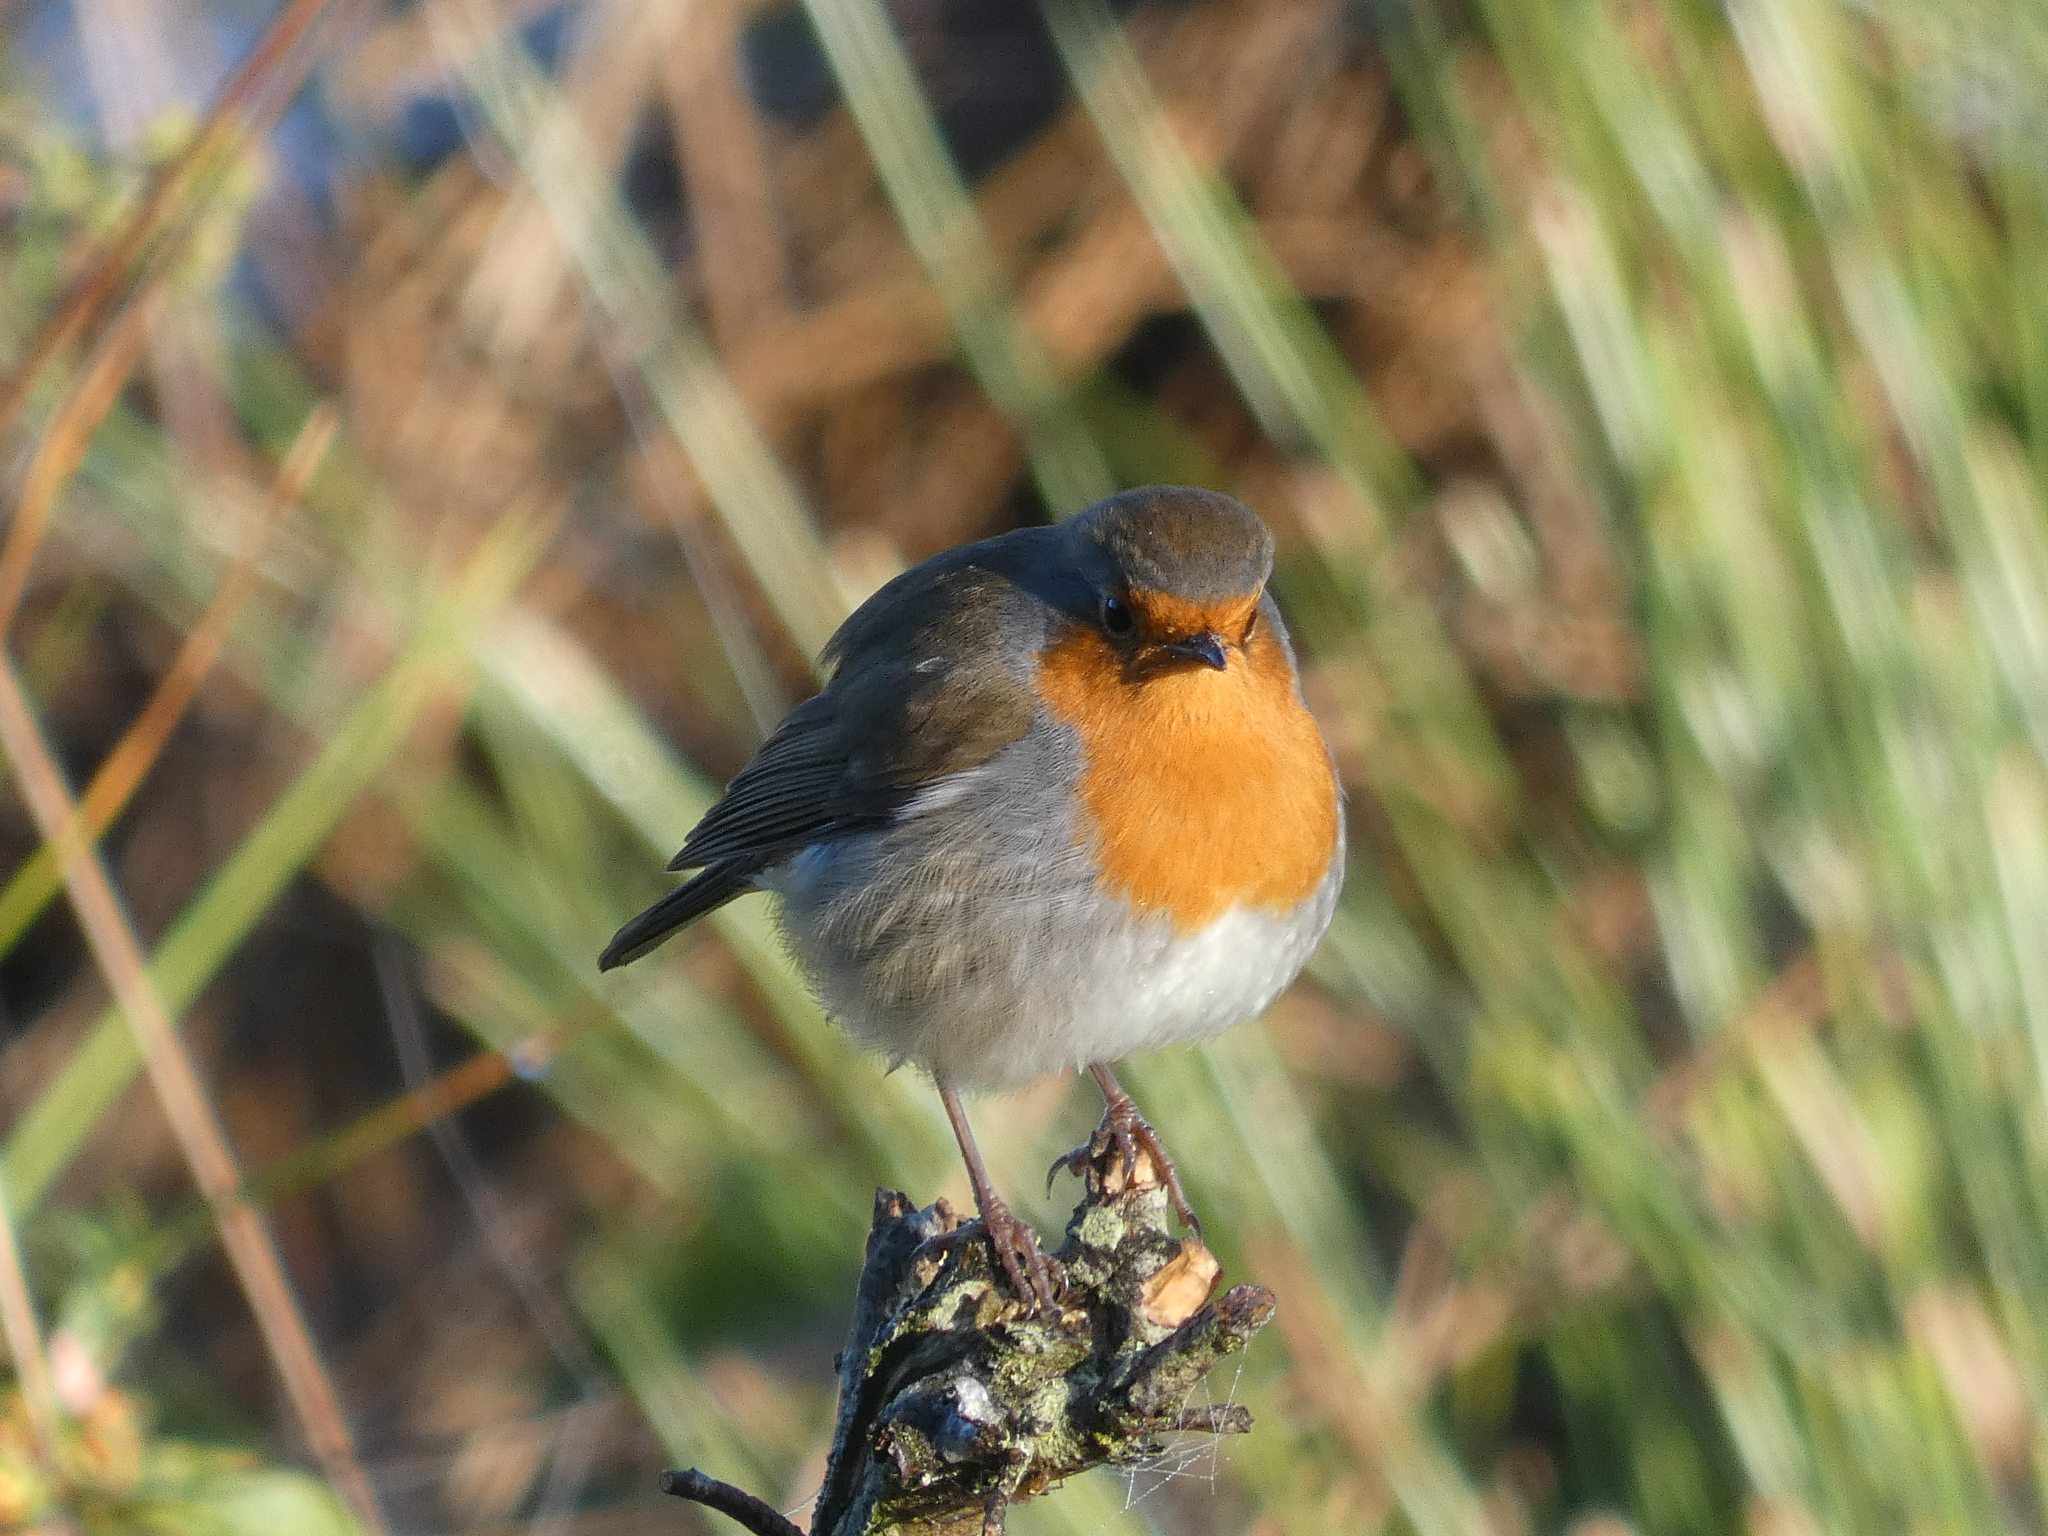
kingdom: Animalia
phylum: Chordata
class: Aves
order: Passeriformes
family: Muscicapidae
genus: Erithacus
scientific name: Erithacus rubecula
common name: European robin
